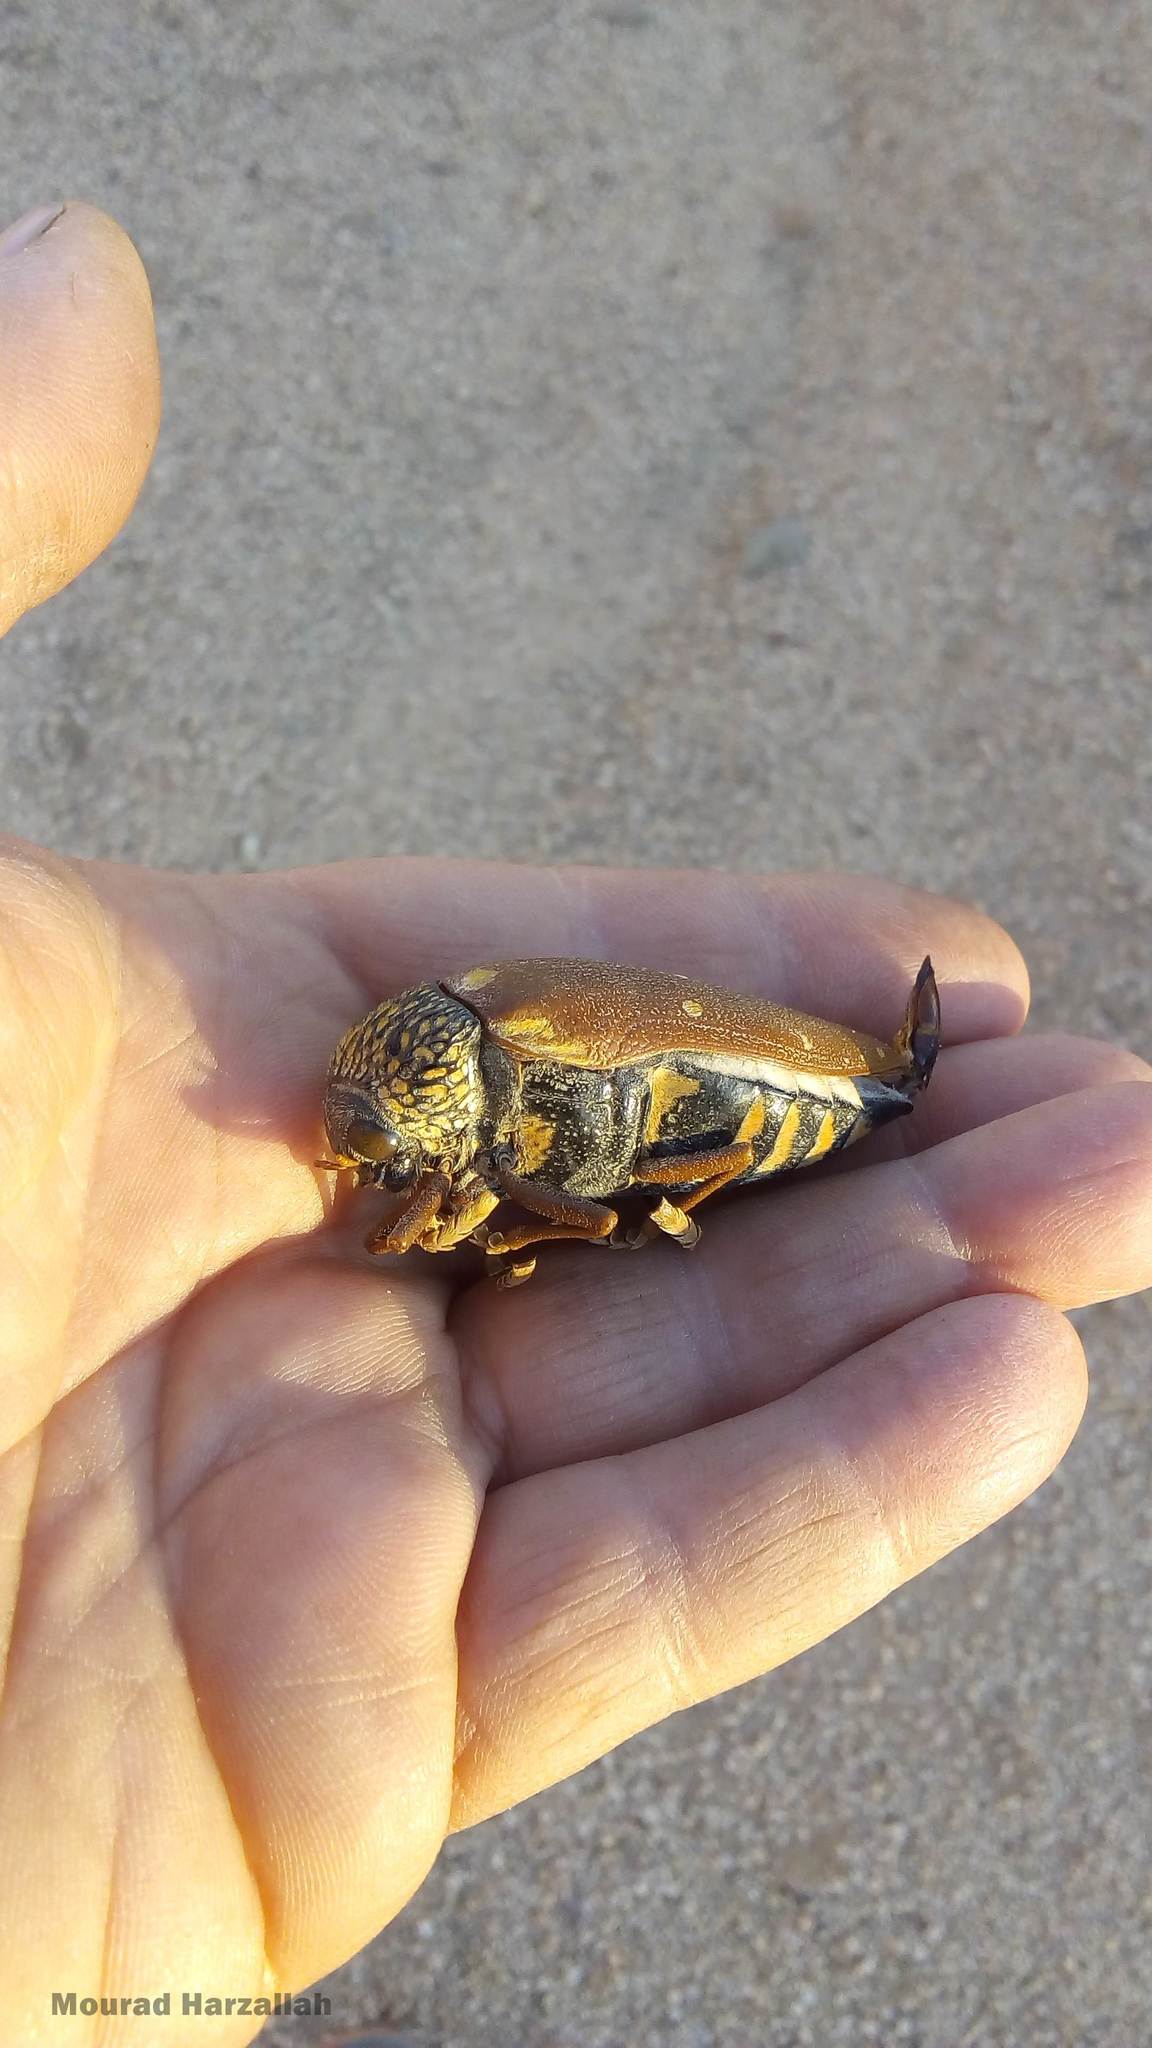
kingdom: Animalia
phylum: Arthropoda
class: Insecta
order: Coleoptera
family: Buprestidae
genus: Sternocera
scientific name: Sternocera castanea
